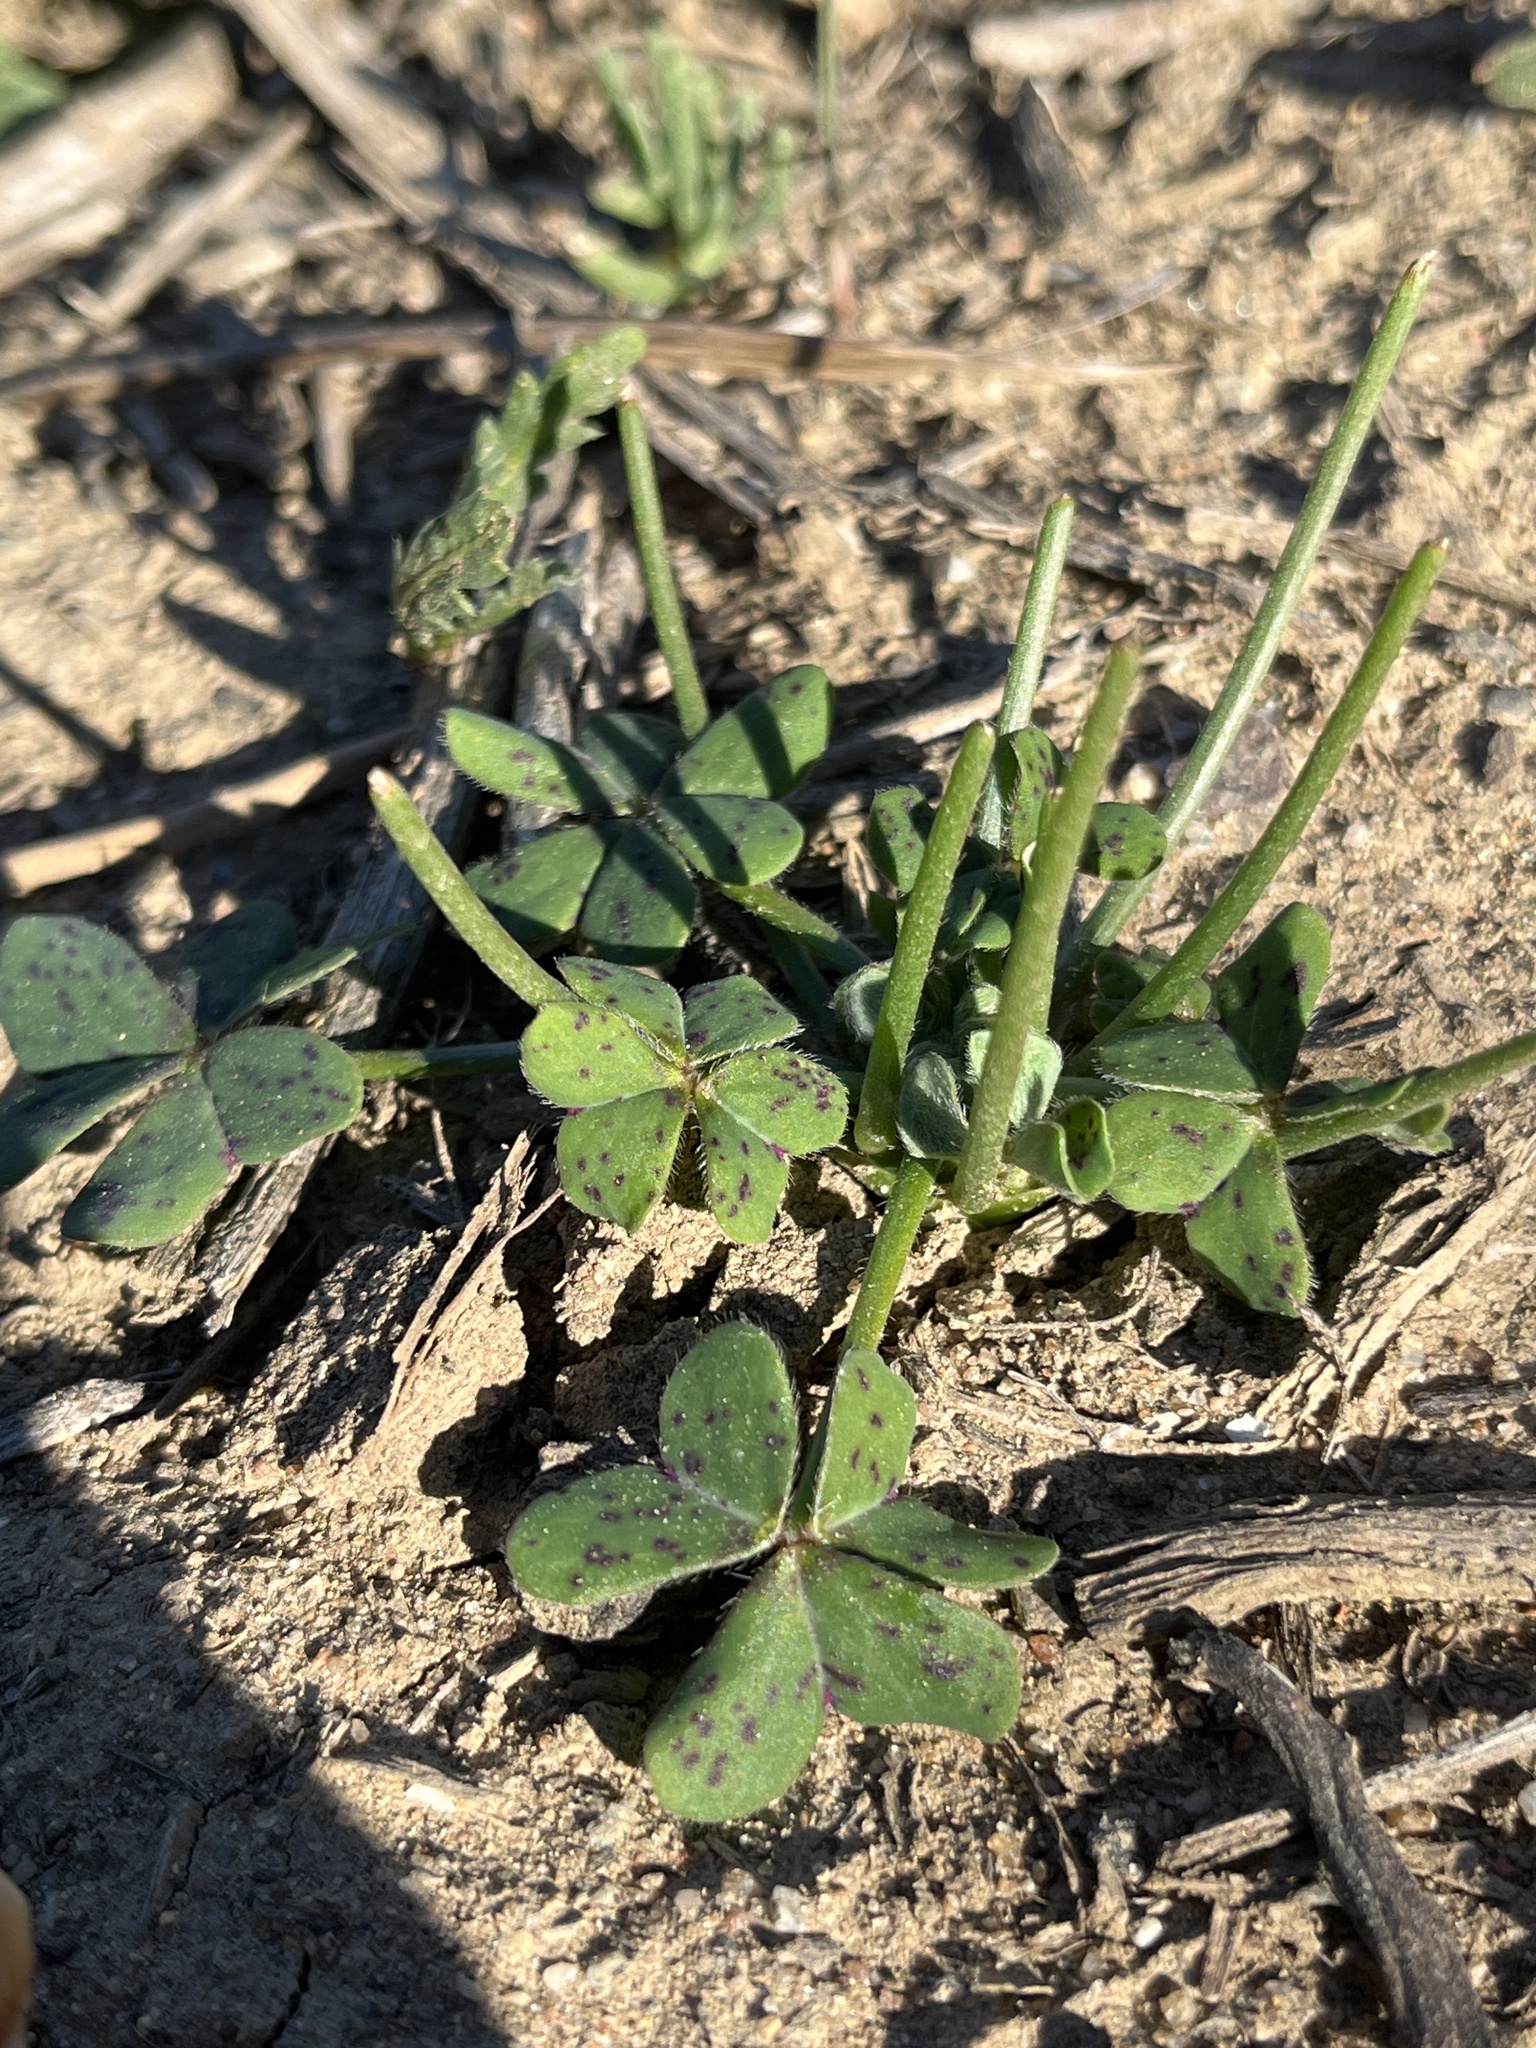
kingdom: Plantae
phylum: Tracheophyta
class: Magnoliopsida
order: Oxalidales
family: Oxalidaceae
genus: Oxalis
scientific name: Oxalis pes-caprae
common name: Bermuda-buttercup
